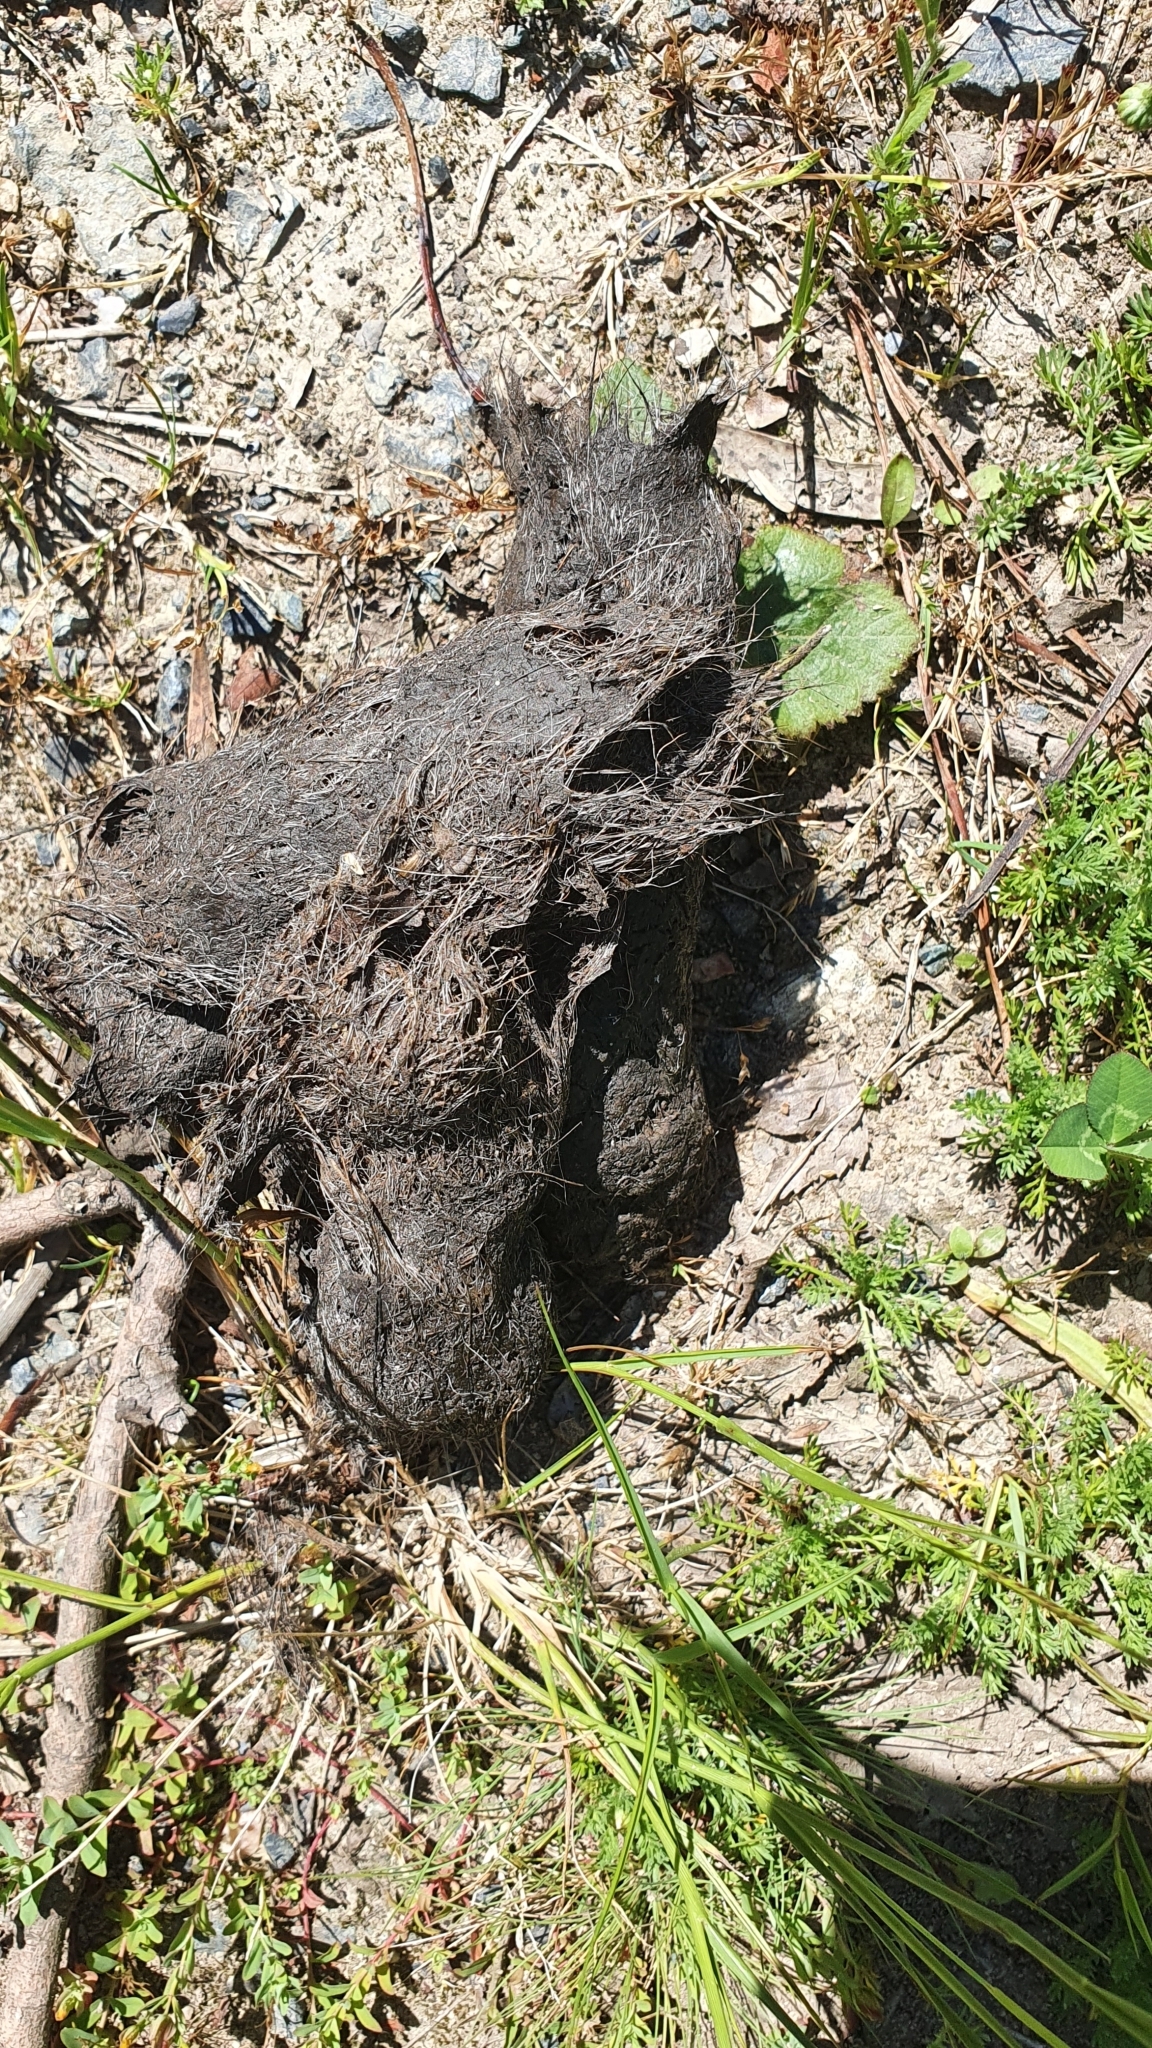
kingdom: Animalia
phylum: Chordata
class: Mammalia
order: Carnivora
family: Canidae
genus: Canis
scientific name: Canis lupus
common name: Gray wolf
